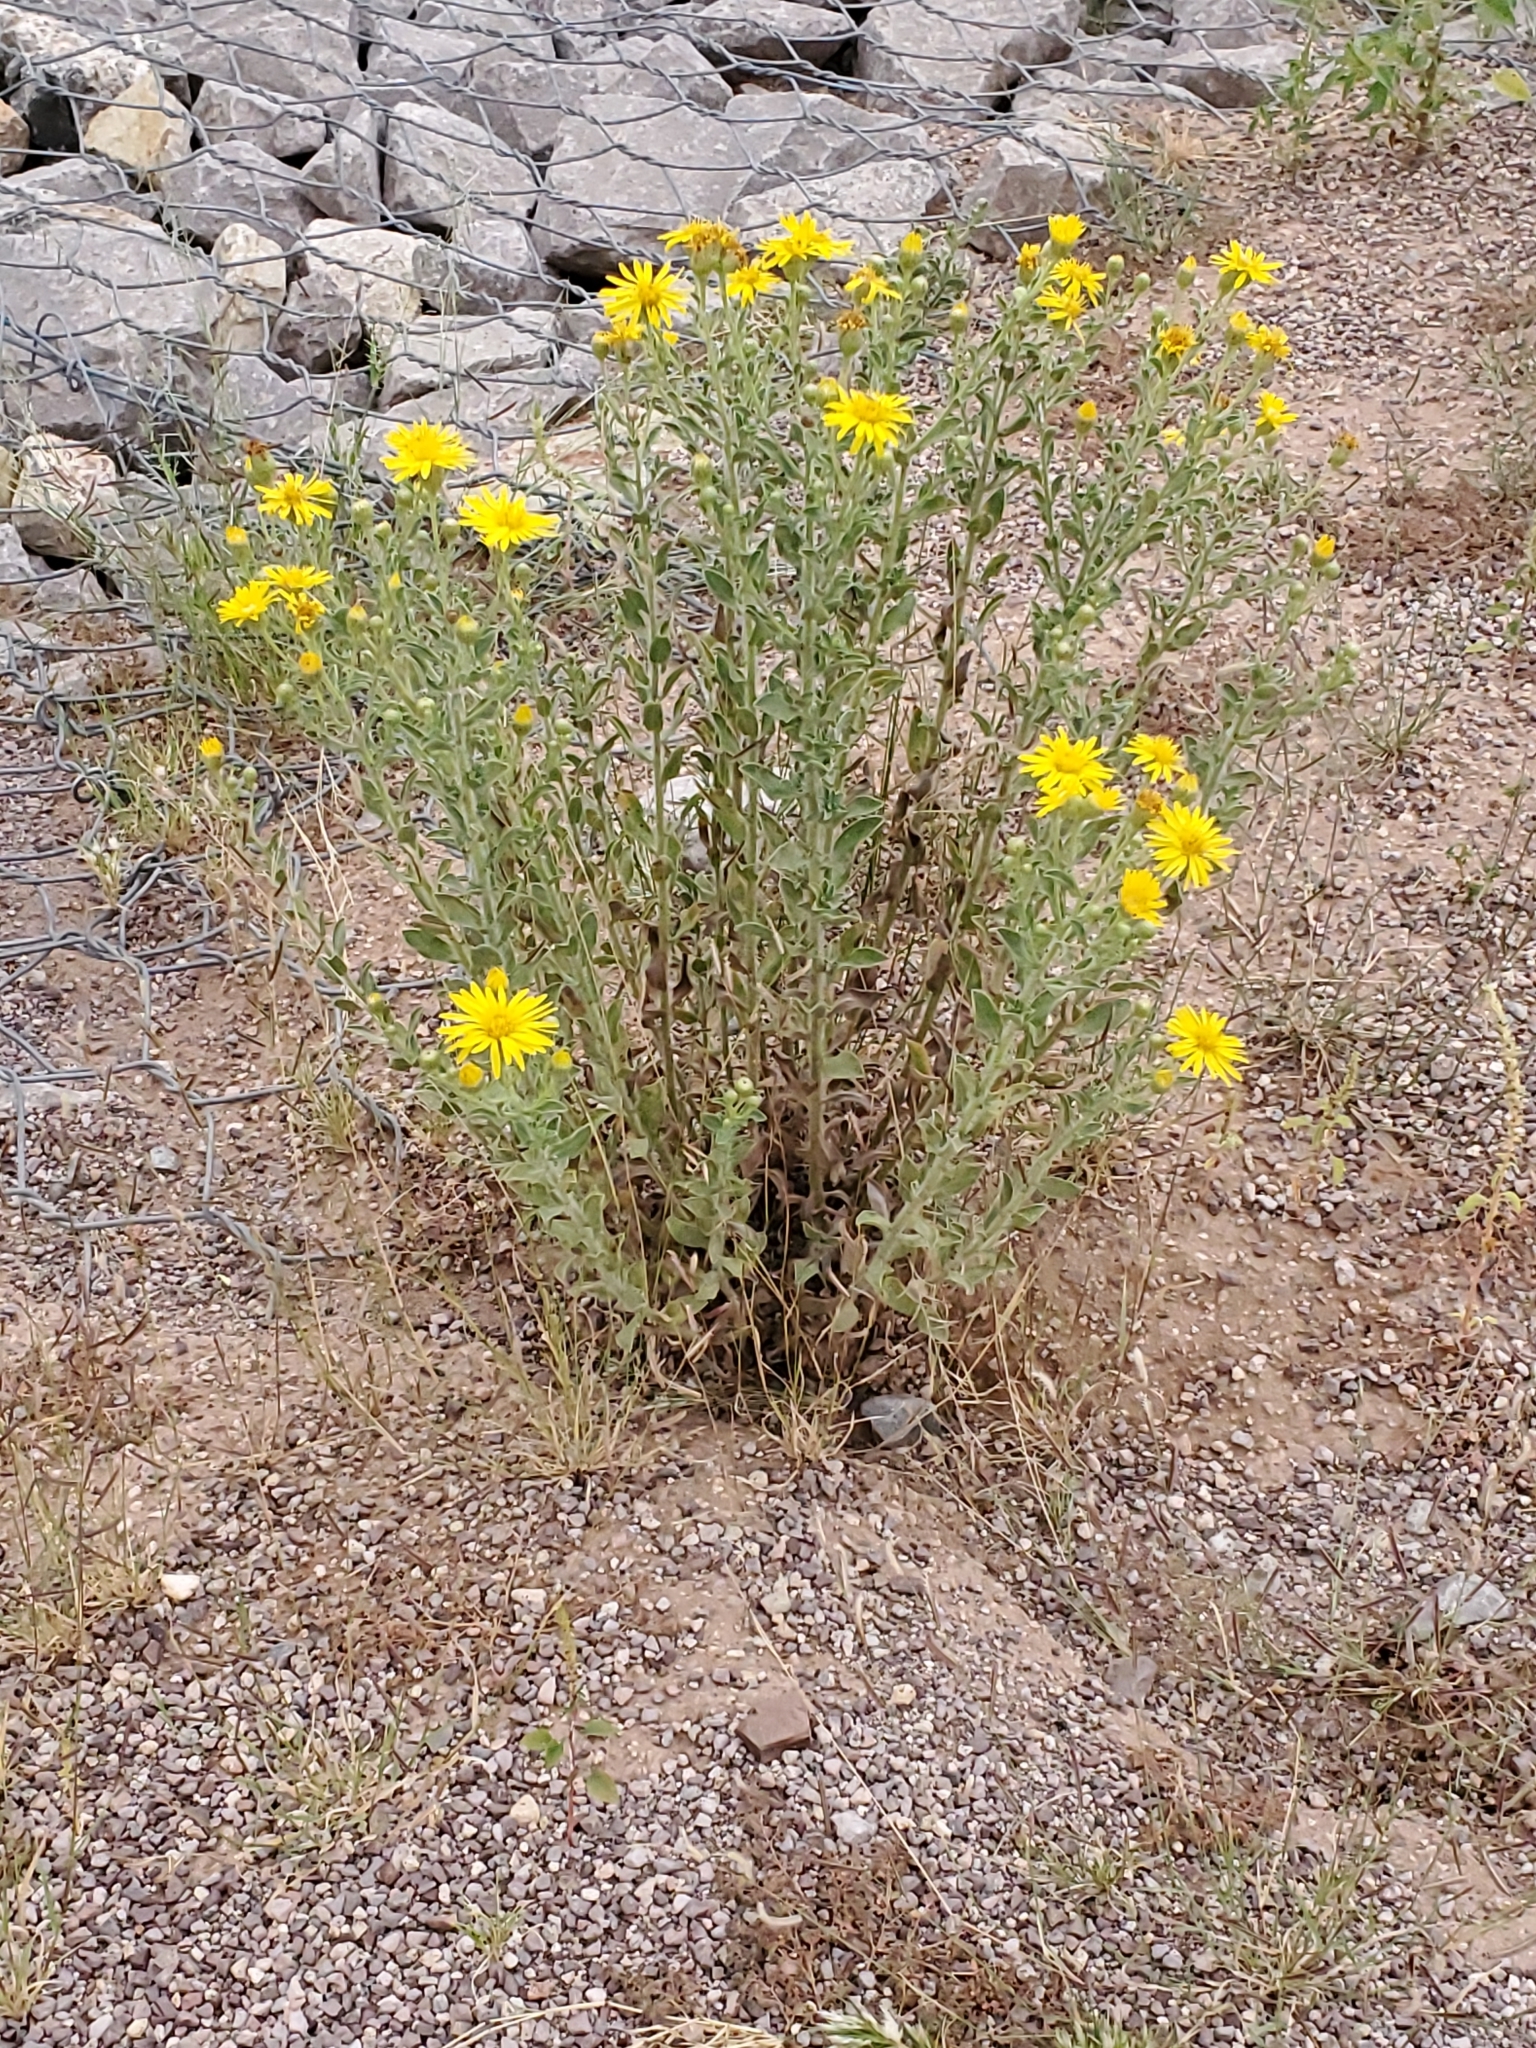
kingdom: Plantae
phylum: Tracheophyta
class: Magnoliopsida
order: Asterales
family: Asteraceae
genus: Heterotheca
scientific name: Heterotheca zionensis
